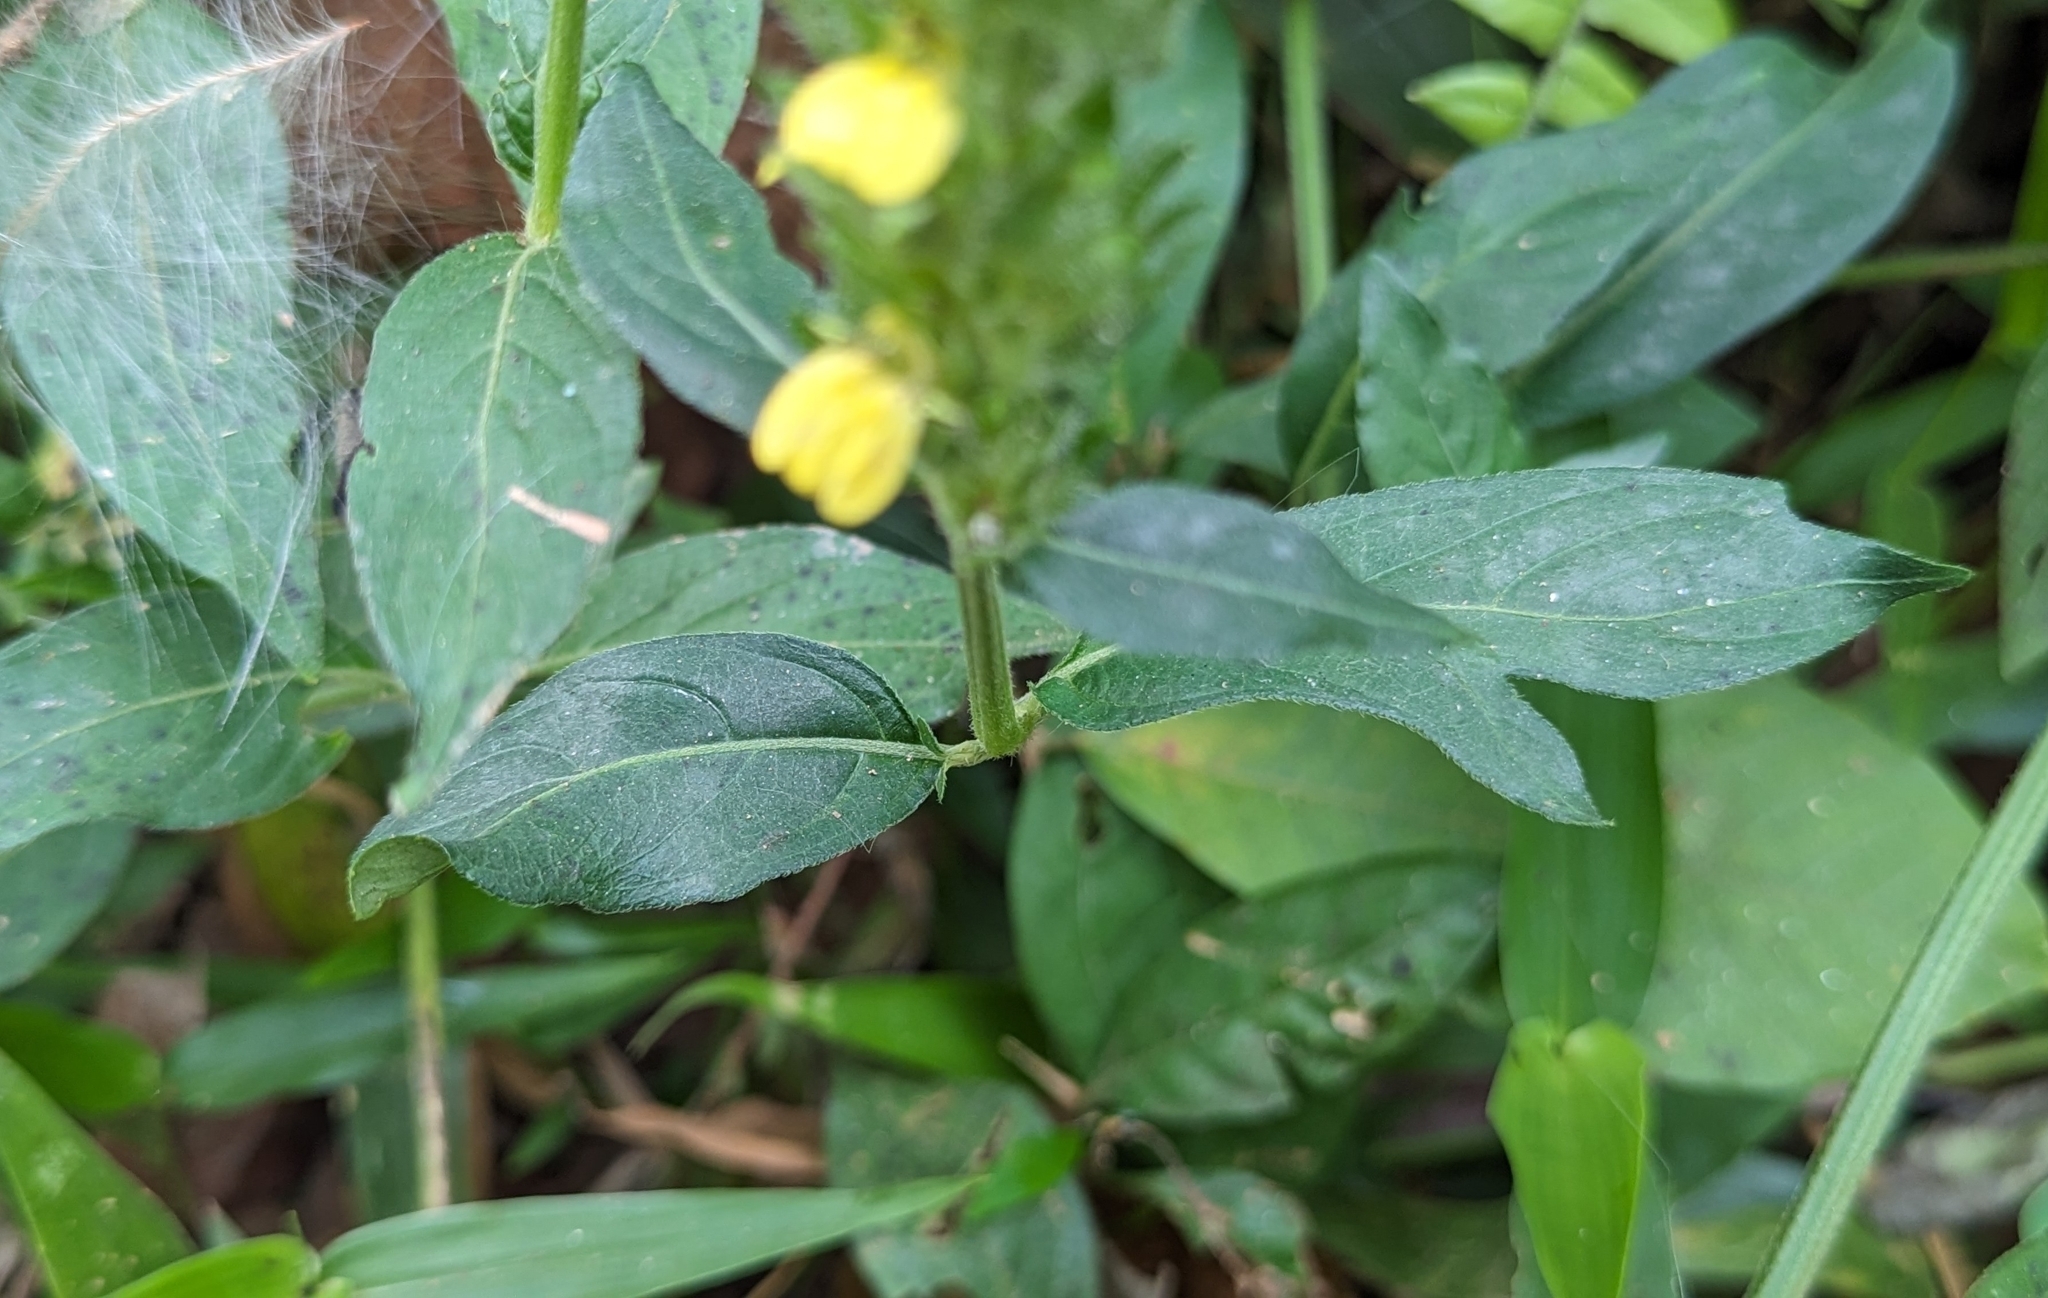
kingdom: Plantae
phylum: Tracheophyta
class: Magnoliopsida
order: Lamiales
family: Acanthaceae
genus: Justicia
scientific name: Justicia flava
